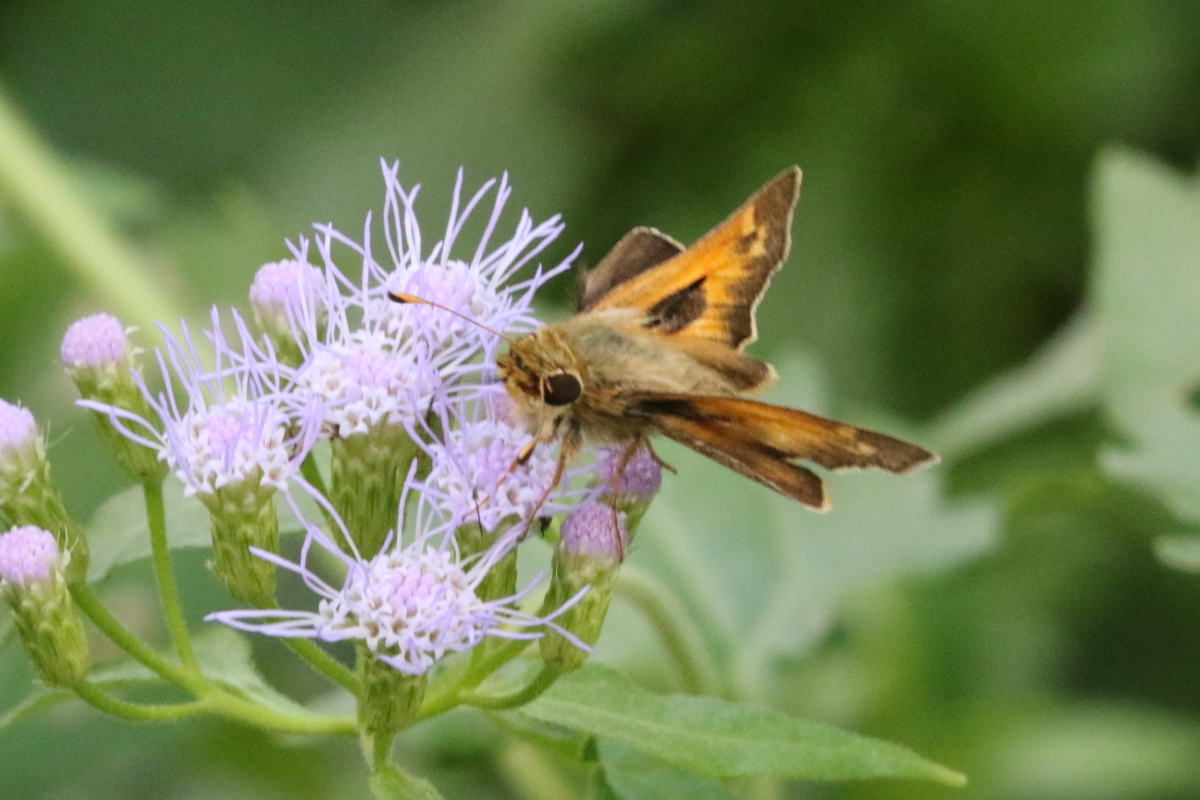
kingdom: Animalia
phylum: Arthropoda
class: Insecta
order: Lepidoptera
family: Hesperiidae
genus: Atalopedes
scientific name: Atalopedes
